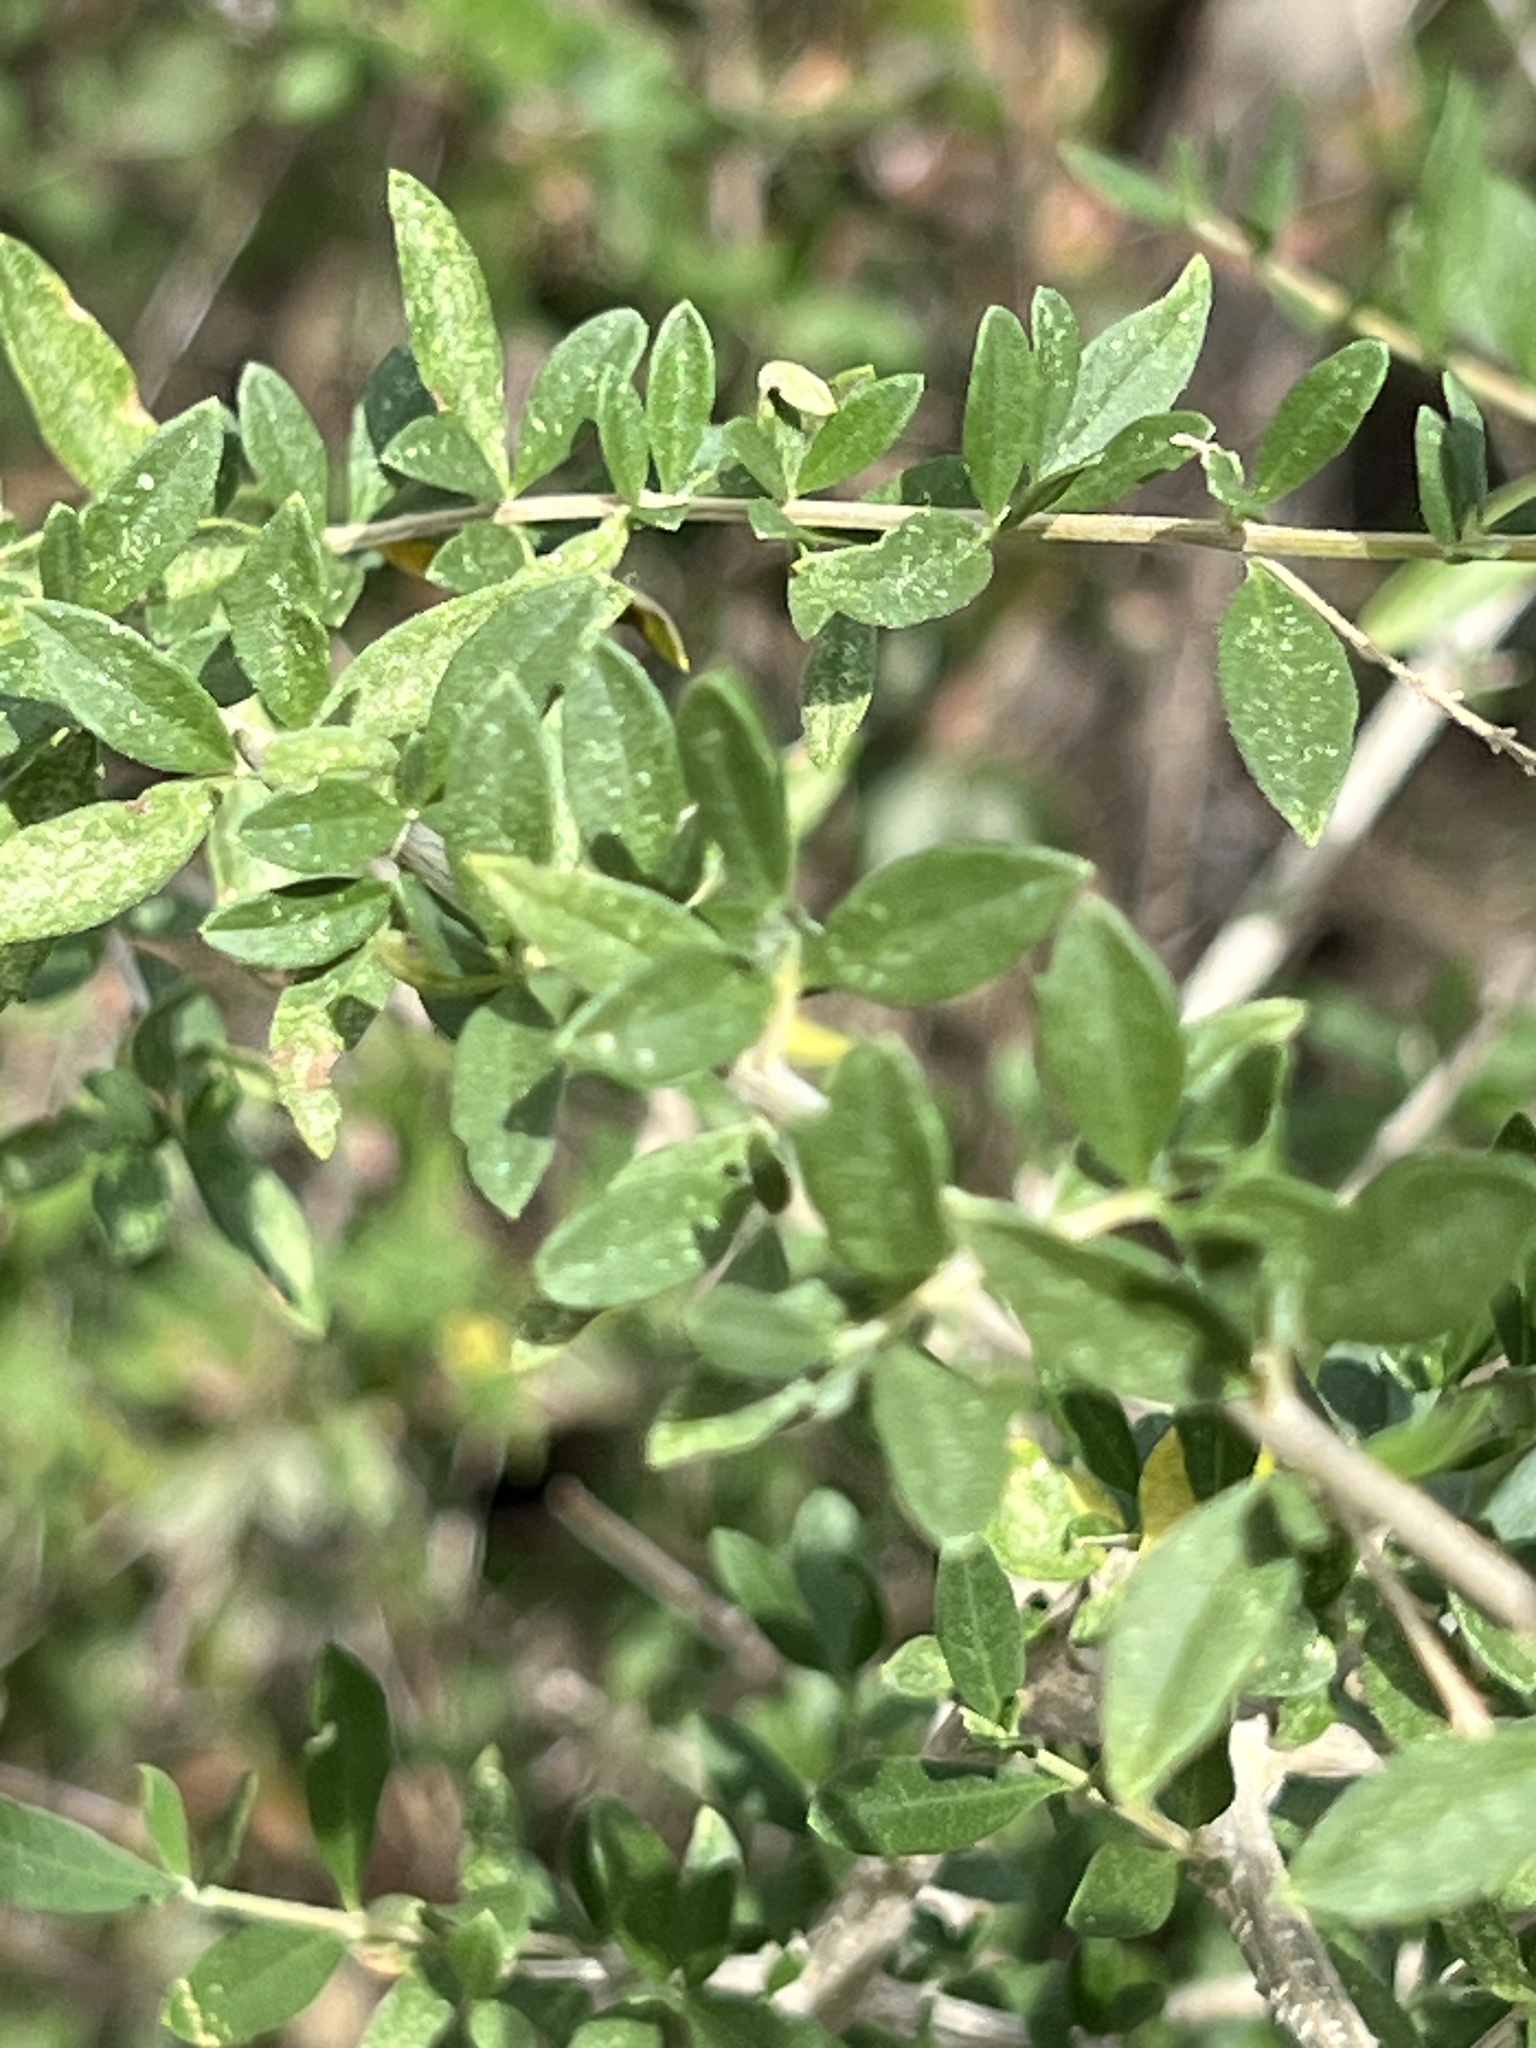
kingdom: Plantae
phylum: Tracheophyta
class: Magnoliopsida
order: Lamiales
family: Verbenaceae
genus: Aloysia
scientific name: Aloysia gratissima
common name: Common bee-brush
